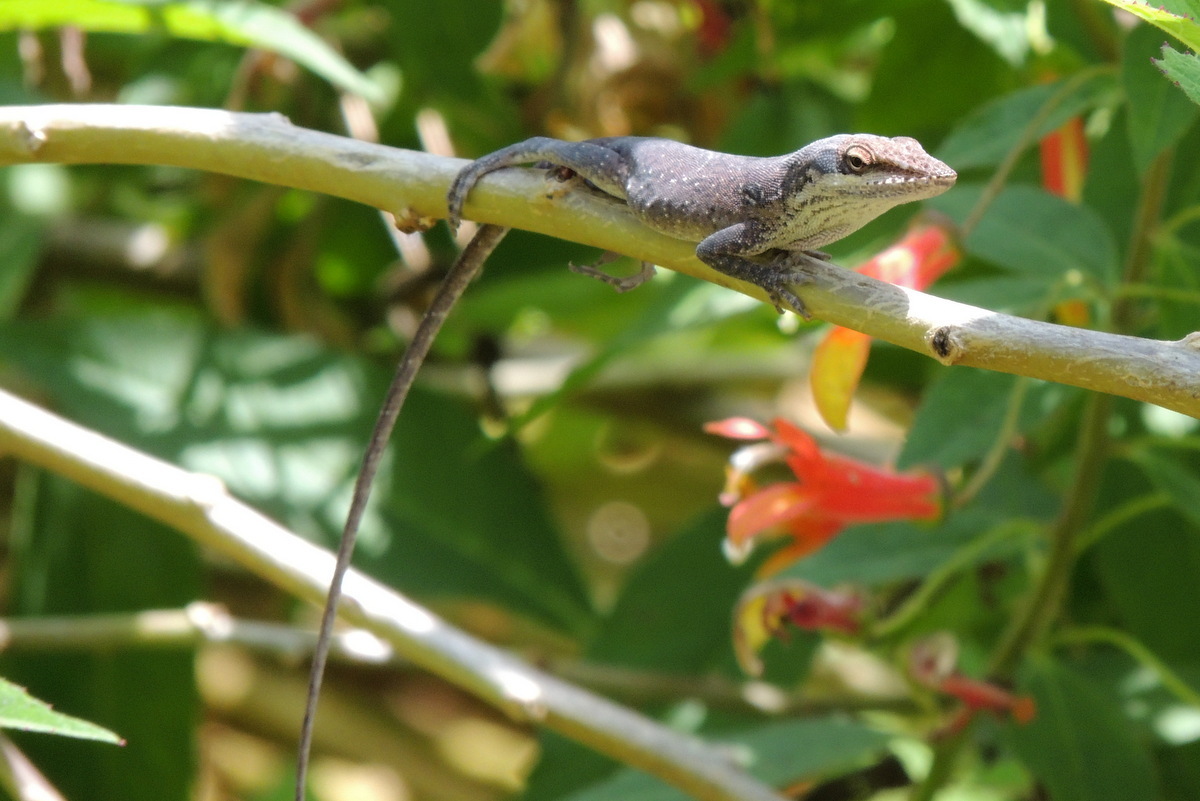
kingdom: Animalia
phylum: Chordata
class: Squamata
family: Dactyloidae
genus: Anolis
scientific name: Anolis carolinensis
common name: Green anole
